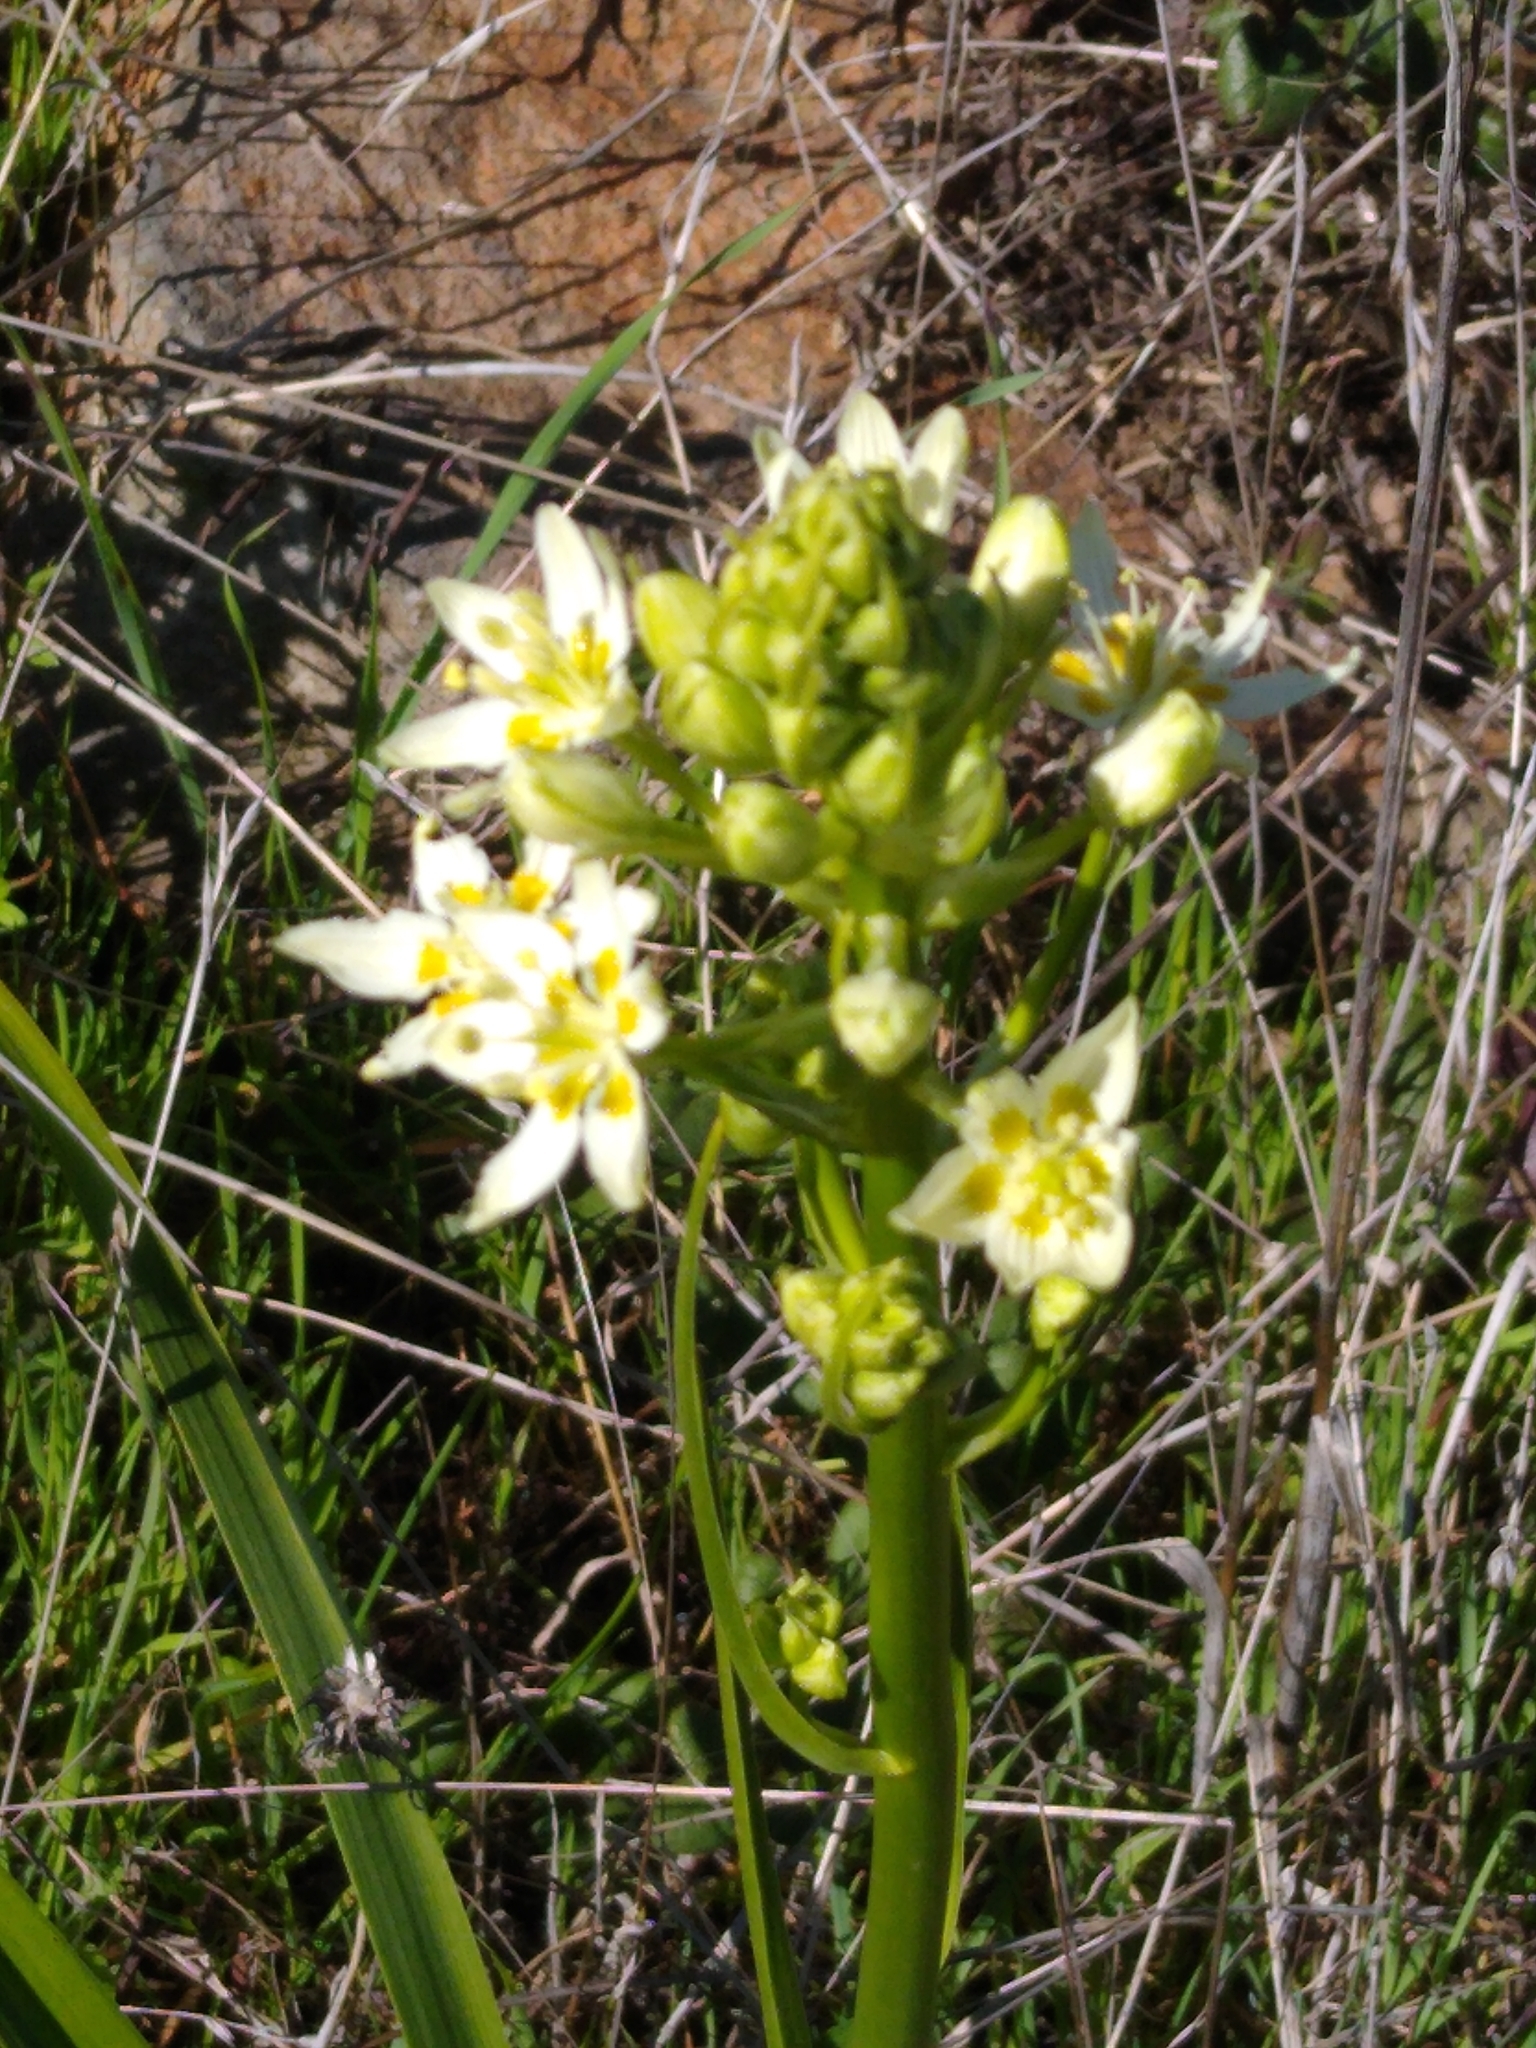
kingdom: Plantae
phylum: Tracheophyta
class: Liliopsida
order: Liliales
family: Melanthiaceae
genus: Toxicoscordion
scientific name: Toxicoscordion fremontii
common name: Fremont's death camas
